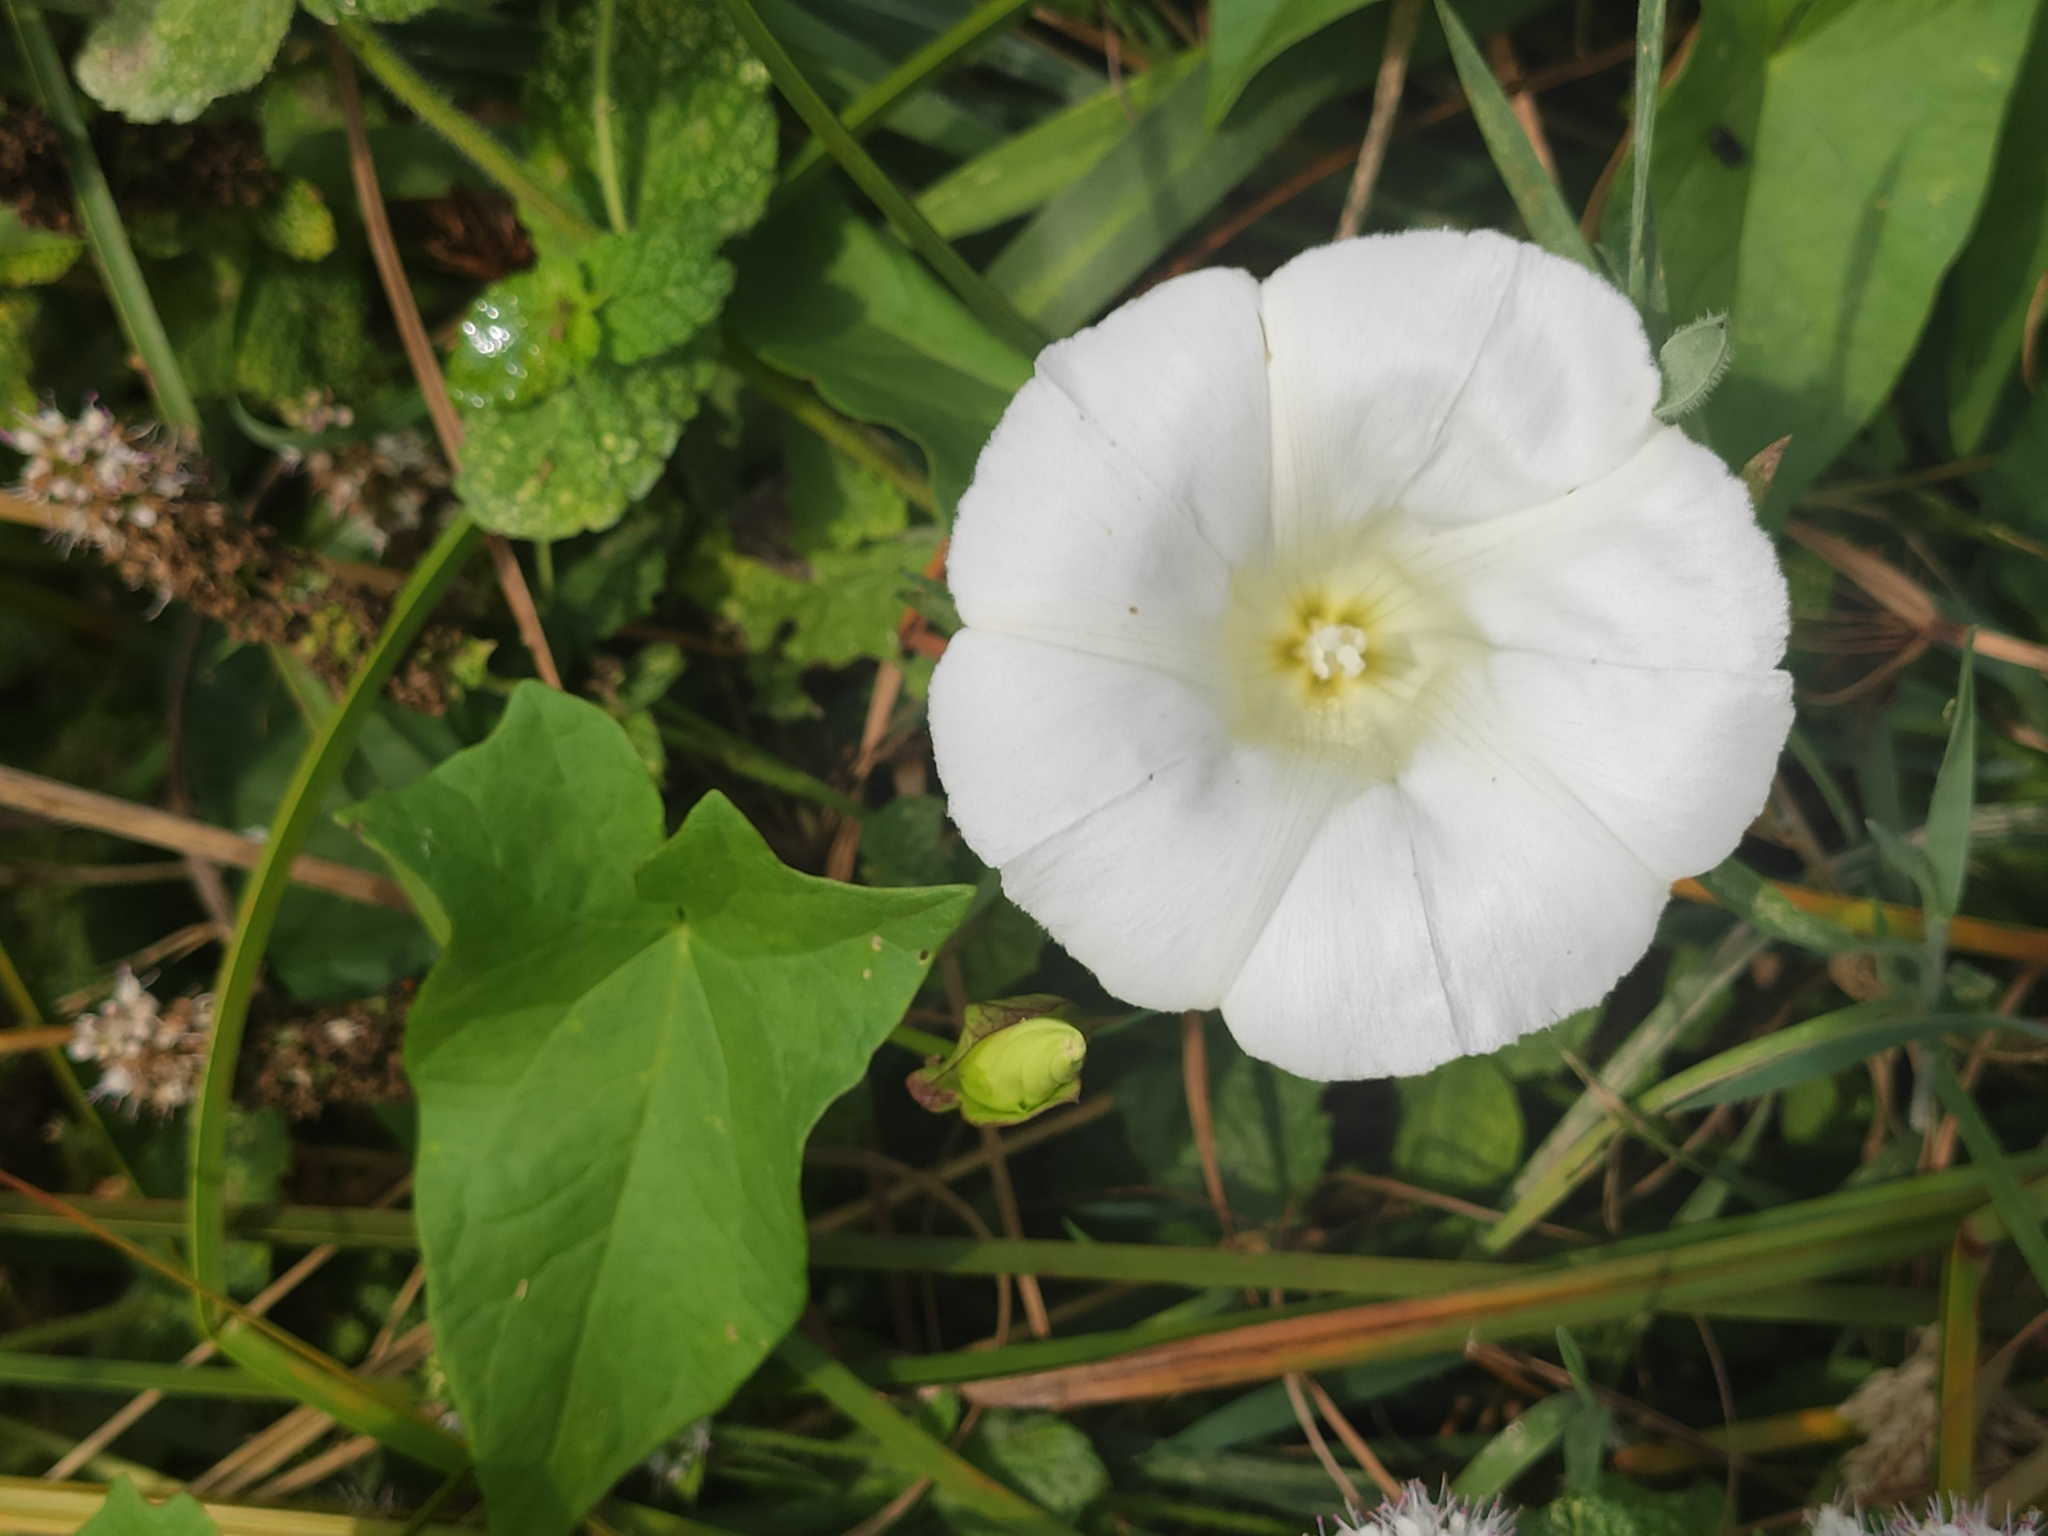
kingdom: Plantae
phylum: Tracheophyta
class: Magnoliopsida
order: Solanales
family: Convolvulaceae
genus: Calystegia
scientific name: Calystegia sepium
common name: Hedge bindweed
